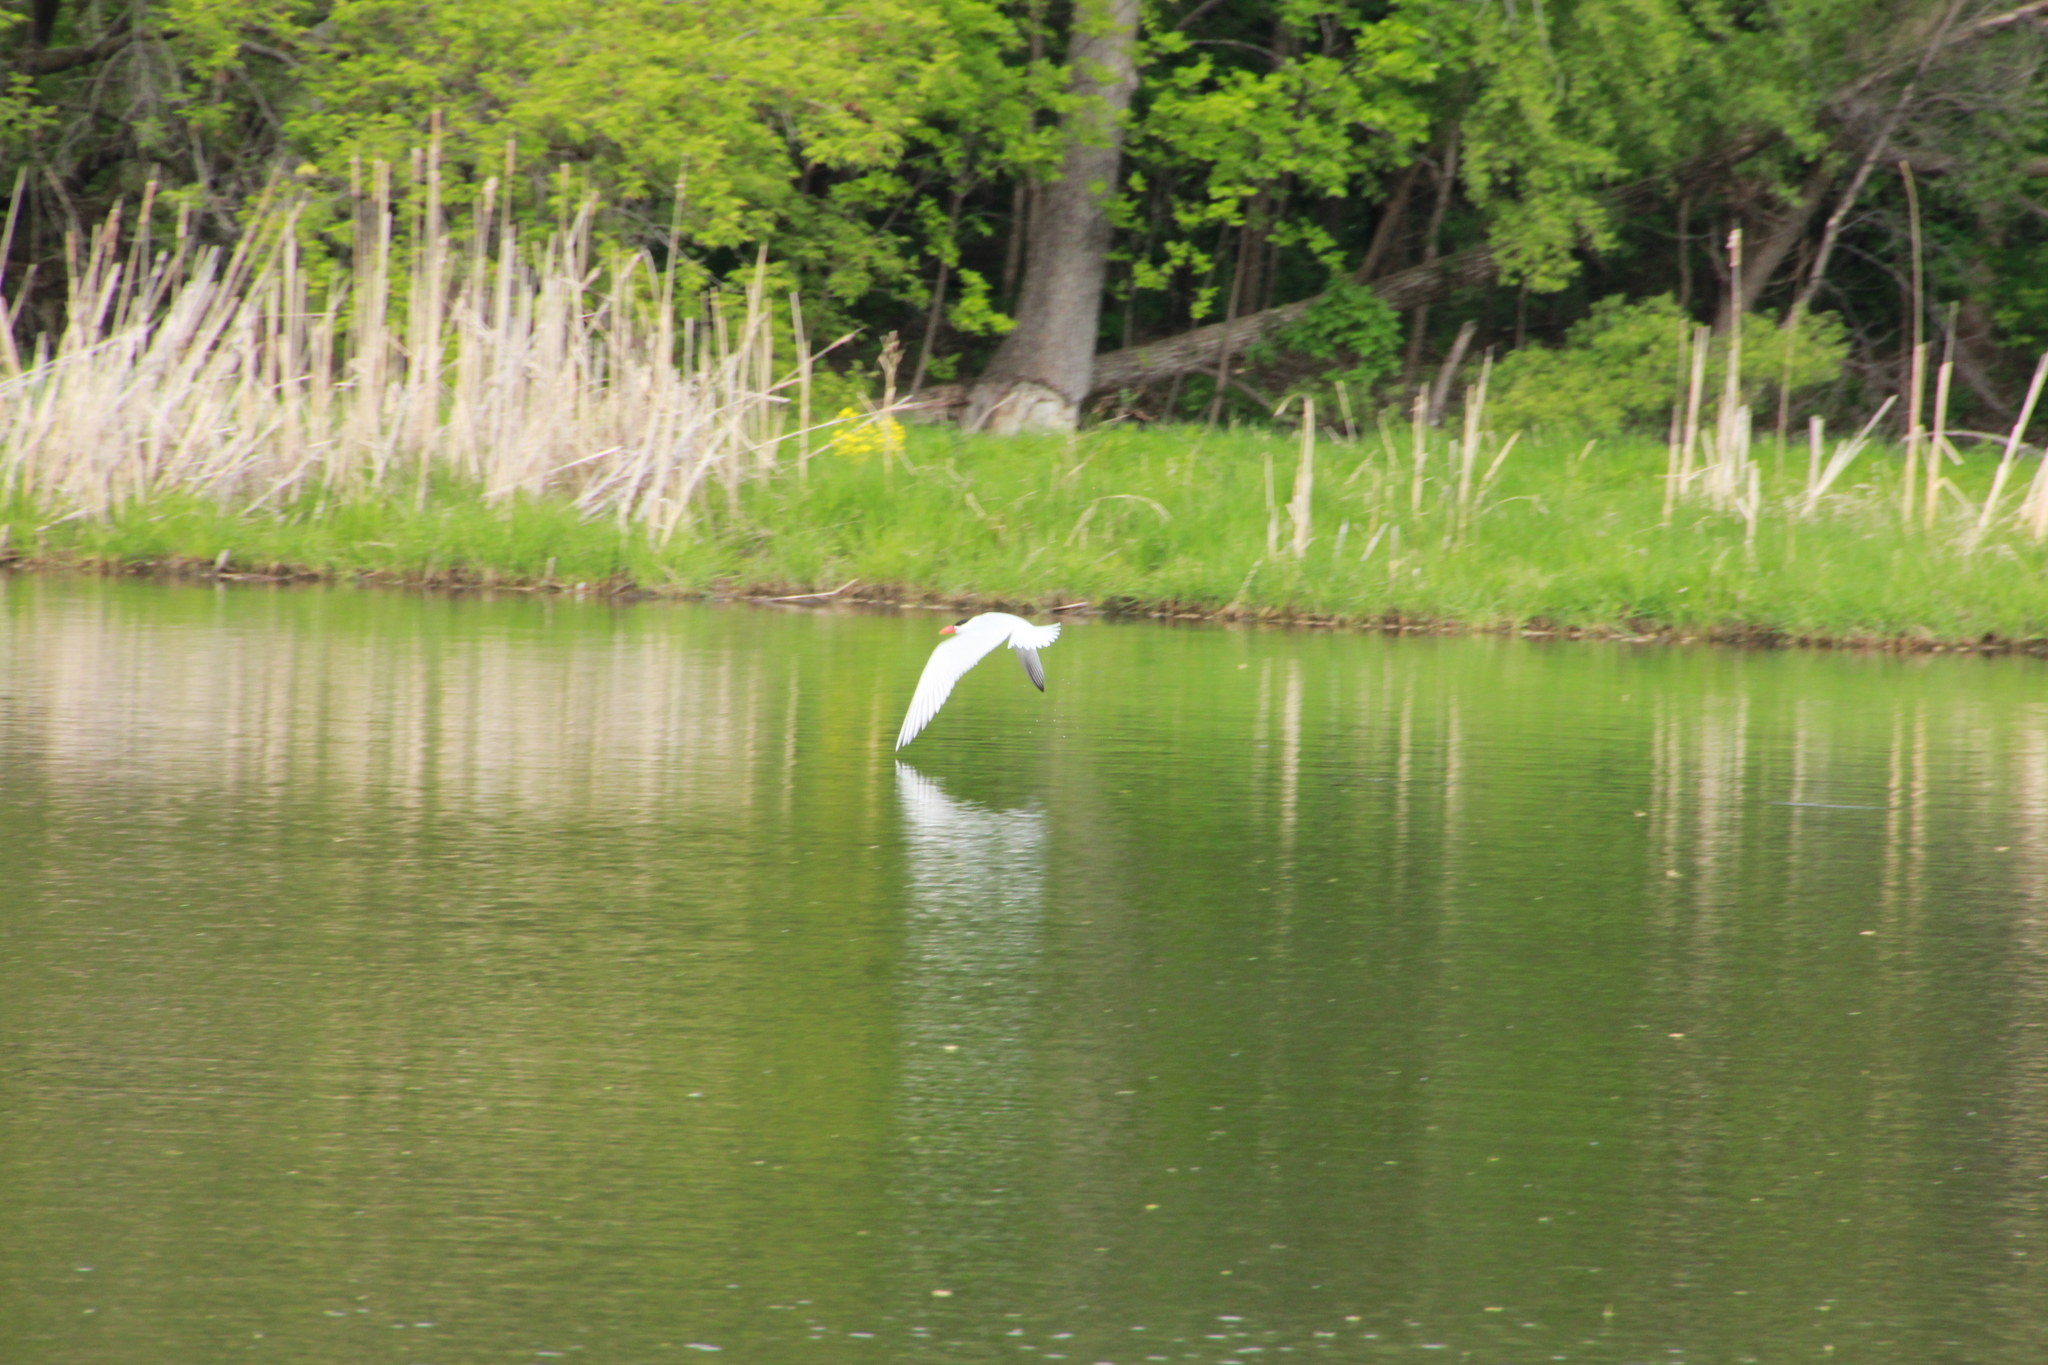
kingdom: Animalia
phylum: Chordata
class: Aves
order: Charadriiformes
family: Laridae
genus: Hydroprogne
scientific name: Hydroprogne caspia
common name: Caspian tern
